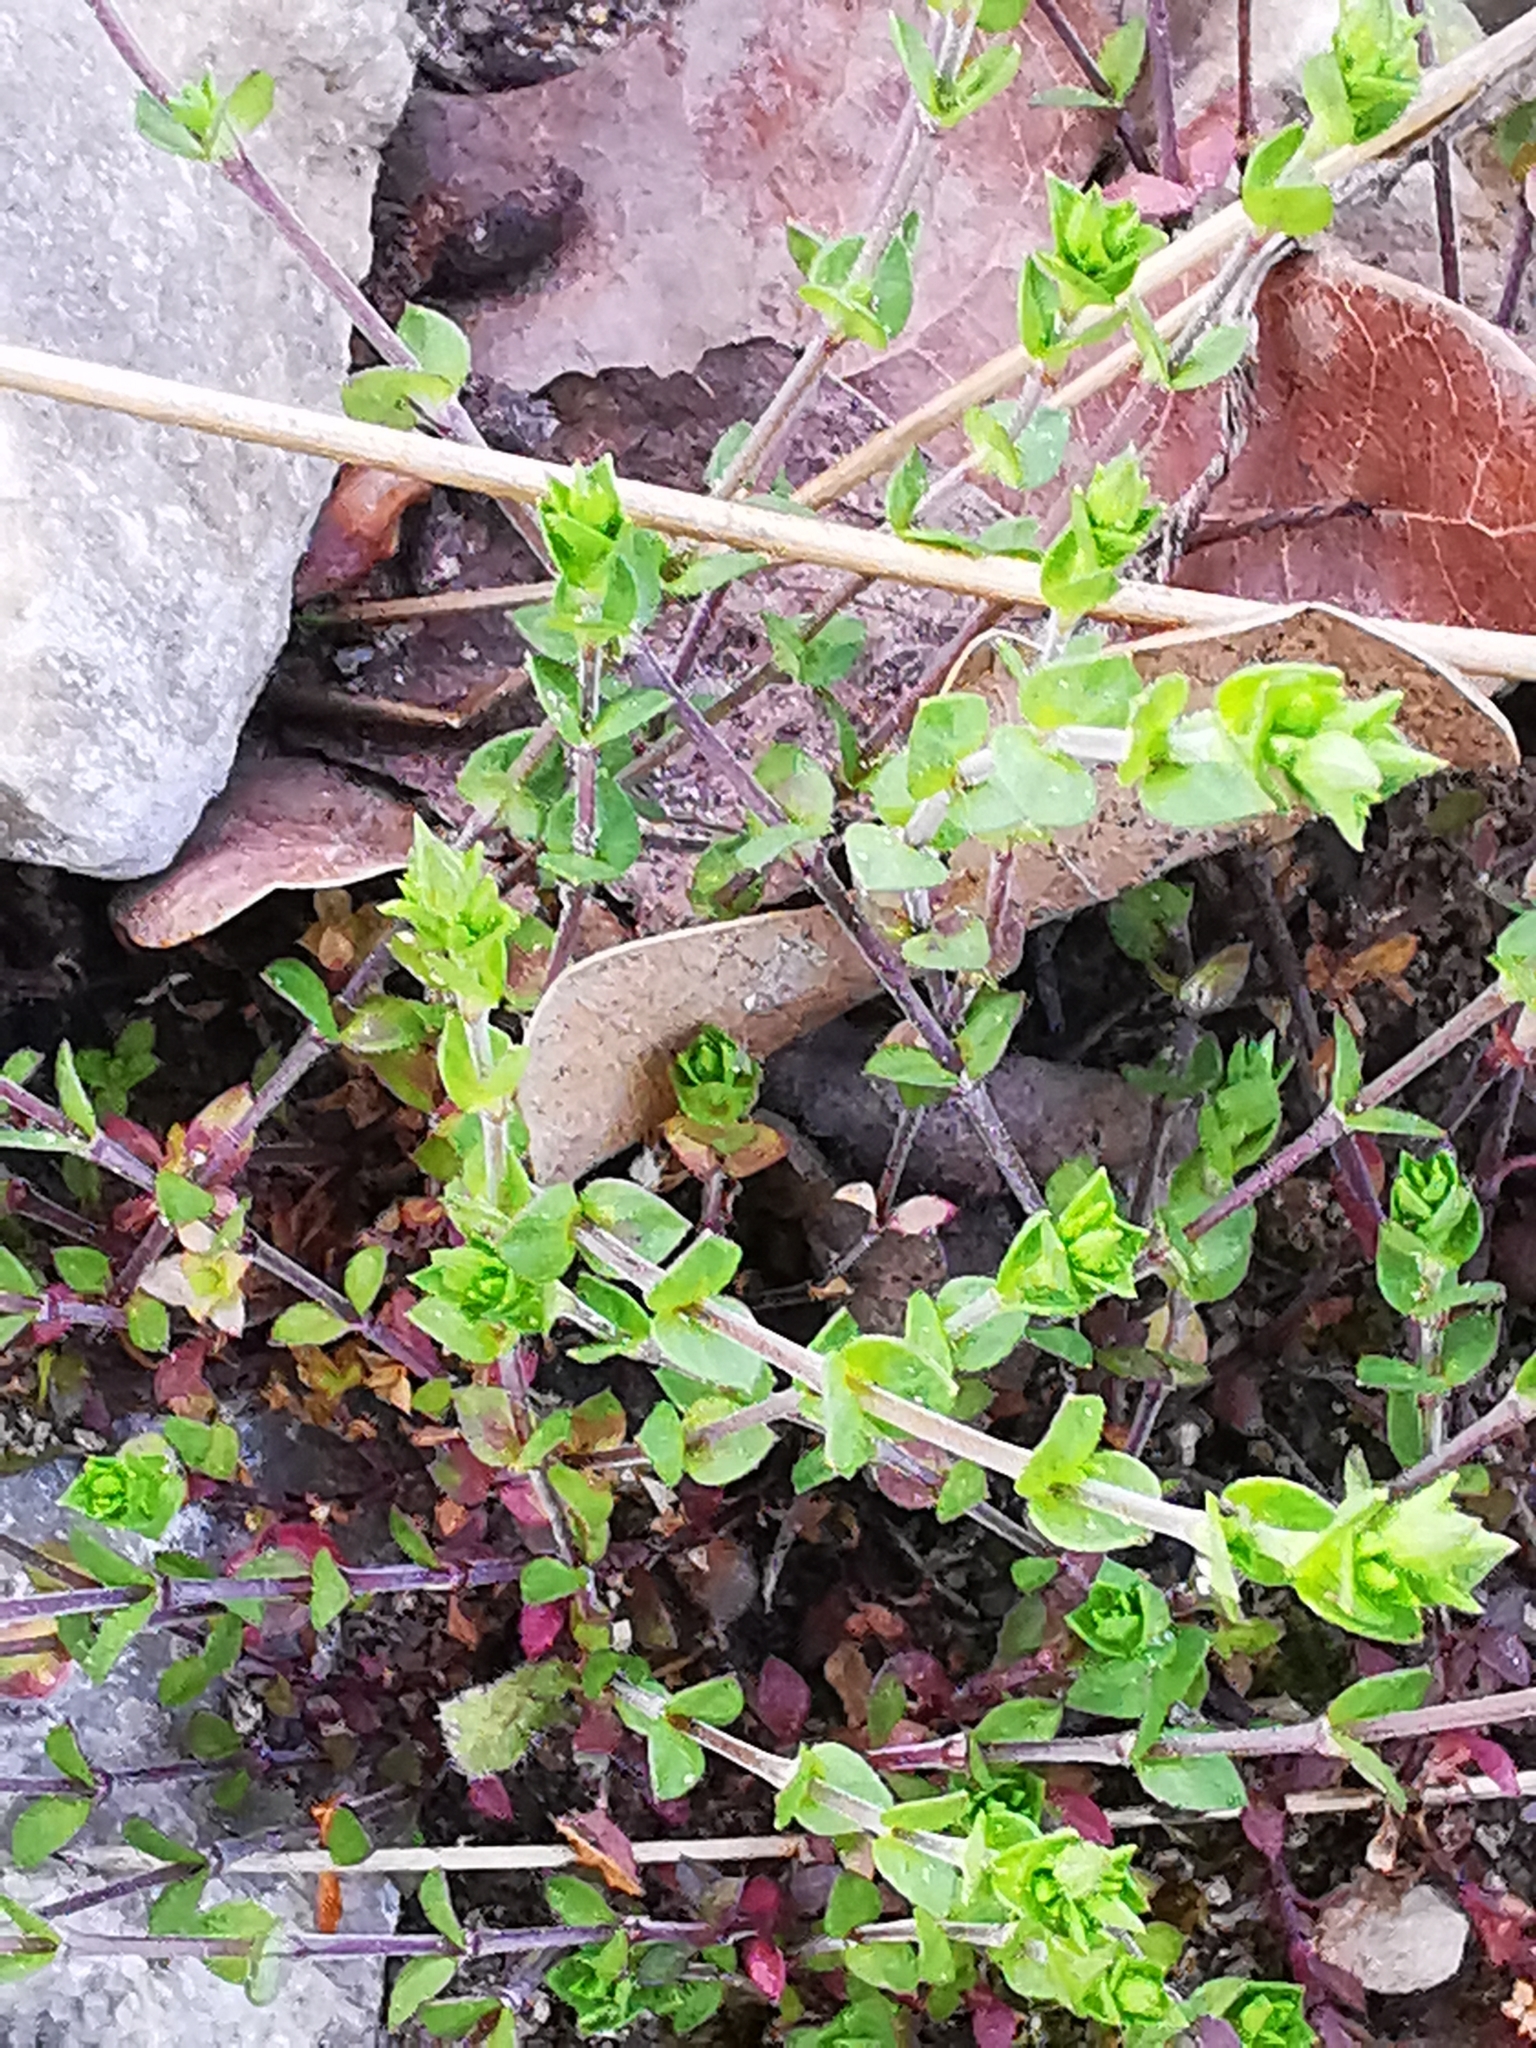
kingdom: Plantae
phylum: Tracheophyta
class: Magnoliopsida
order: Caryophyllales
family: Caryophyllaceae
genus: Arenaria
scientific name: Arenaria serpyllifolia
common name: Thyme-leaved sandwort
